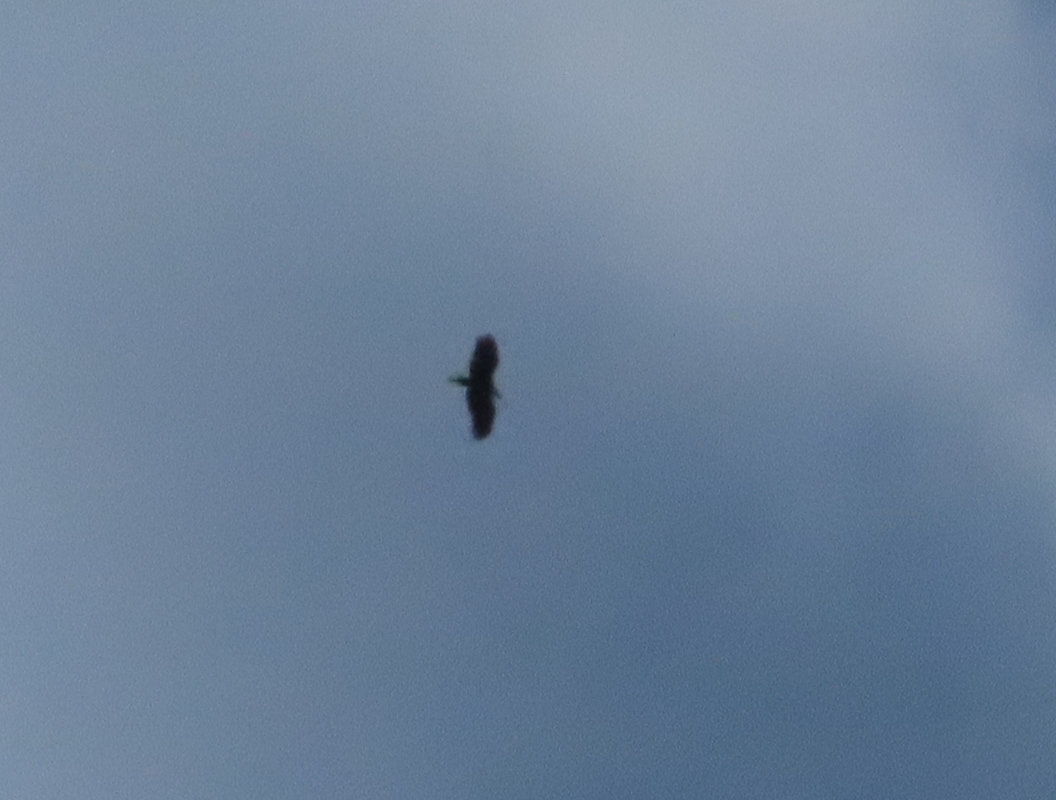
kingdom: Animalia
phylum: Chordata
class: Aves
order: Passeriformes
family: Corvidae
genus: Corvus
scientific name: Corvus brachyrhynchos
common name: American crow
